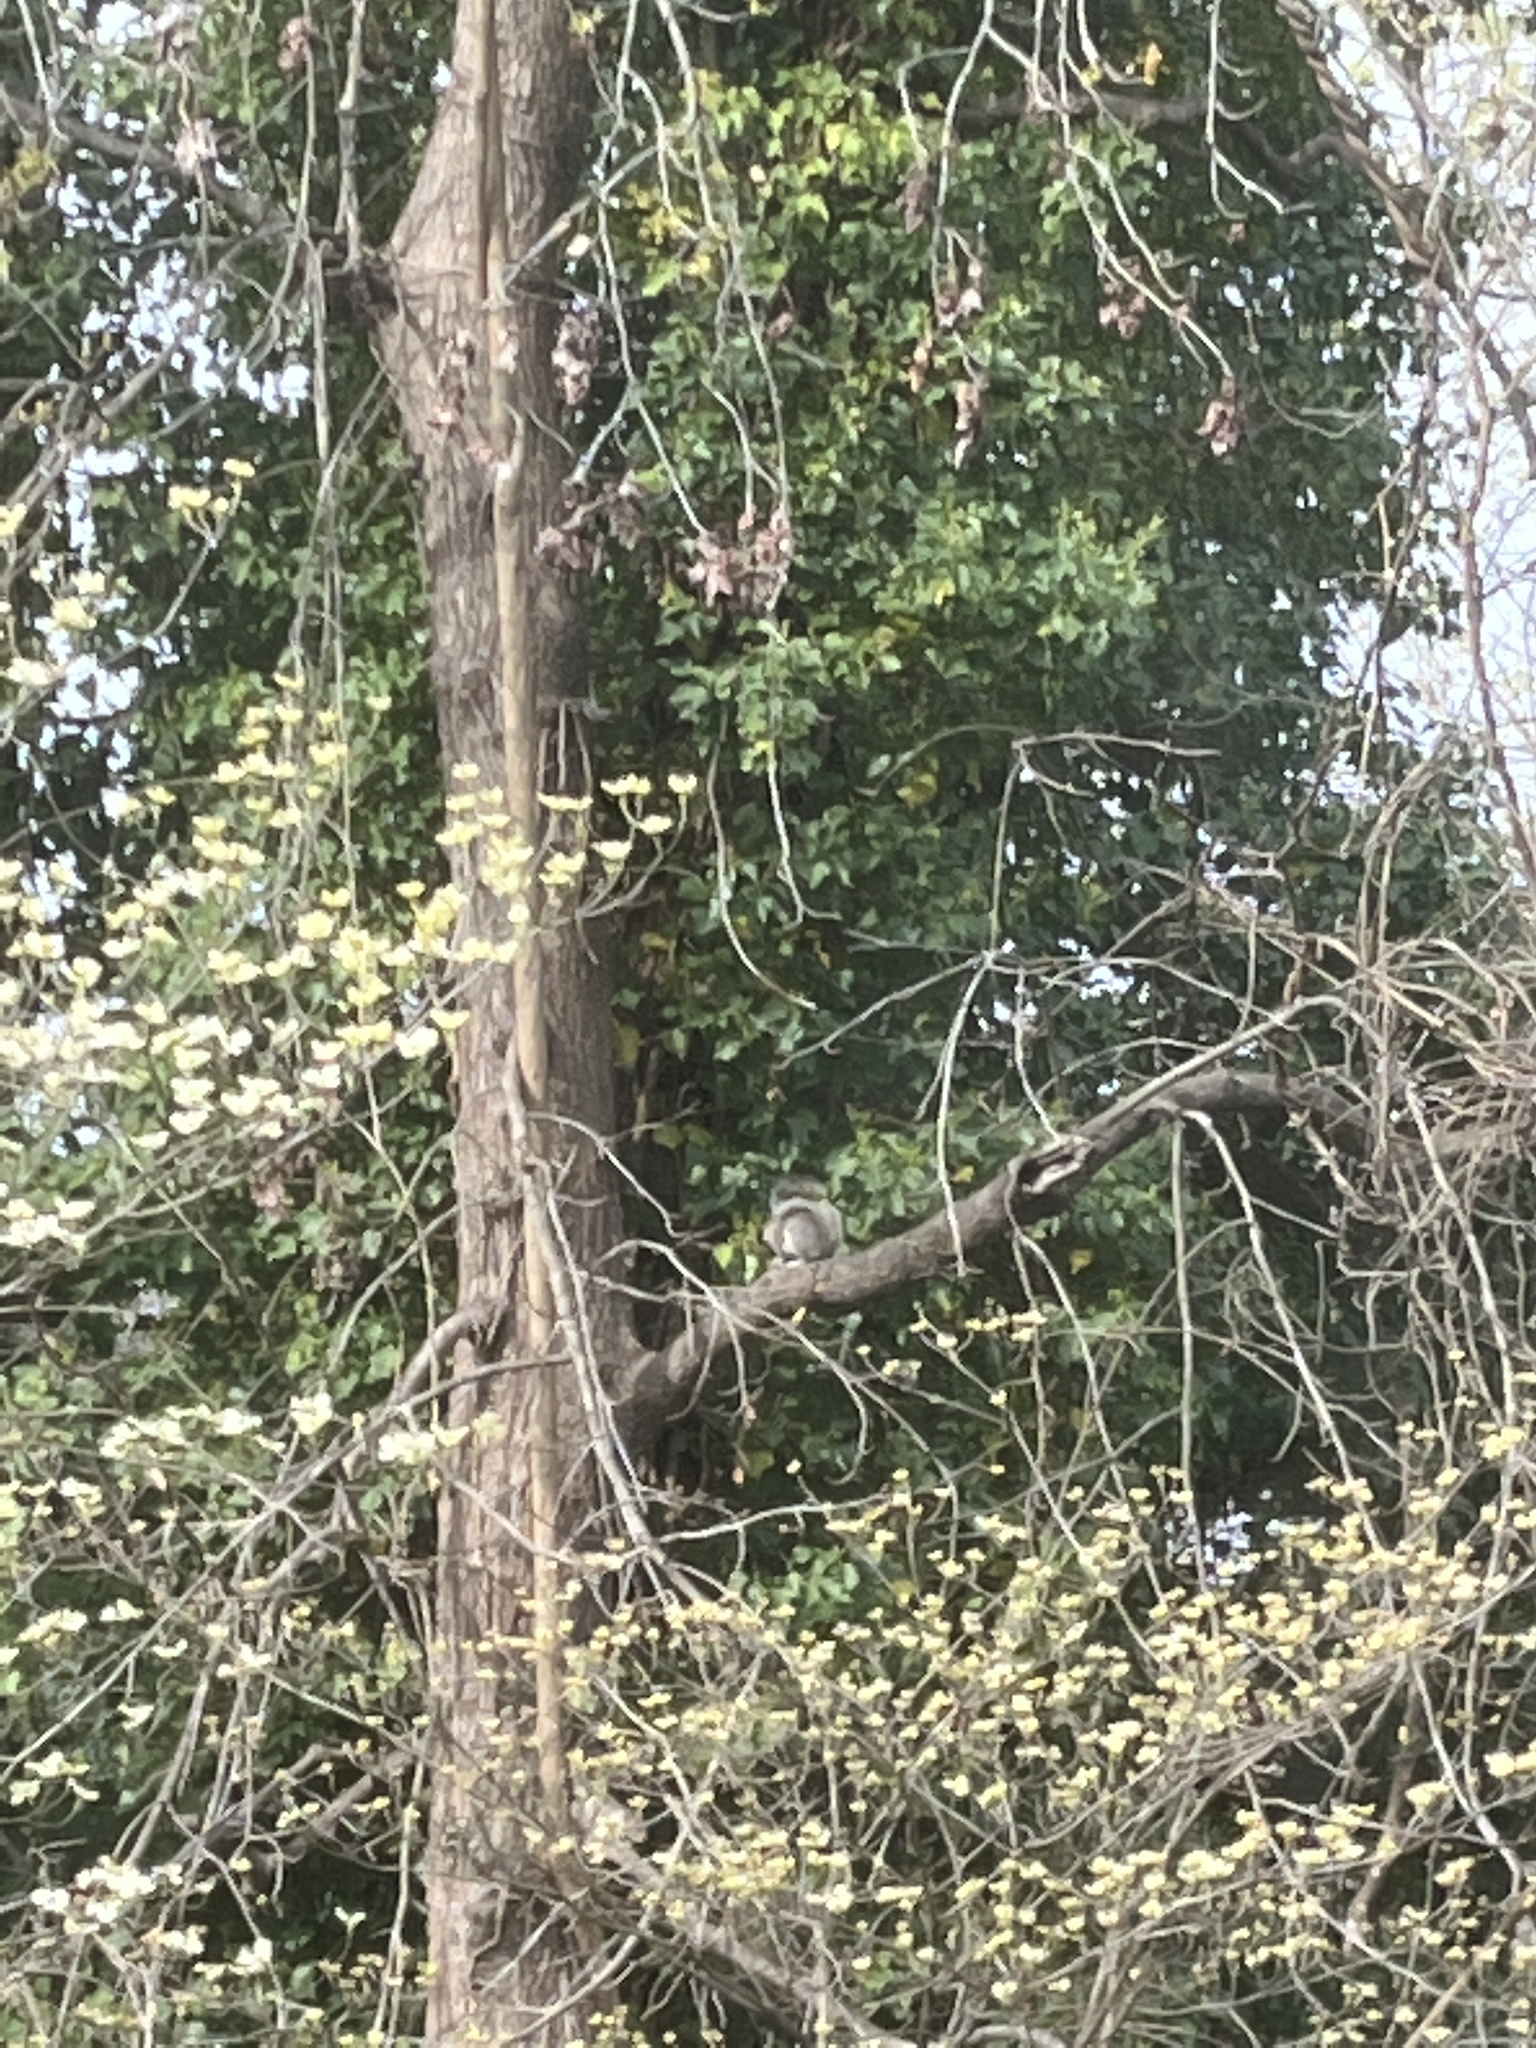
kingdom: Animalia
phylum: Chordata
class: Mammalia
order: Rodentia
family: Sciuridae
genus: Sciurus
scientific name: Sciurus carolinensis
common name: Eastern gray squirrel
